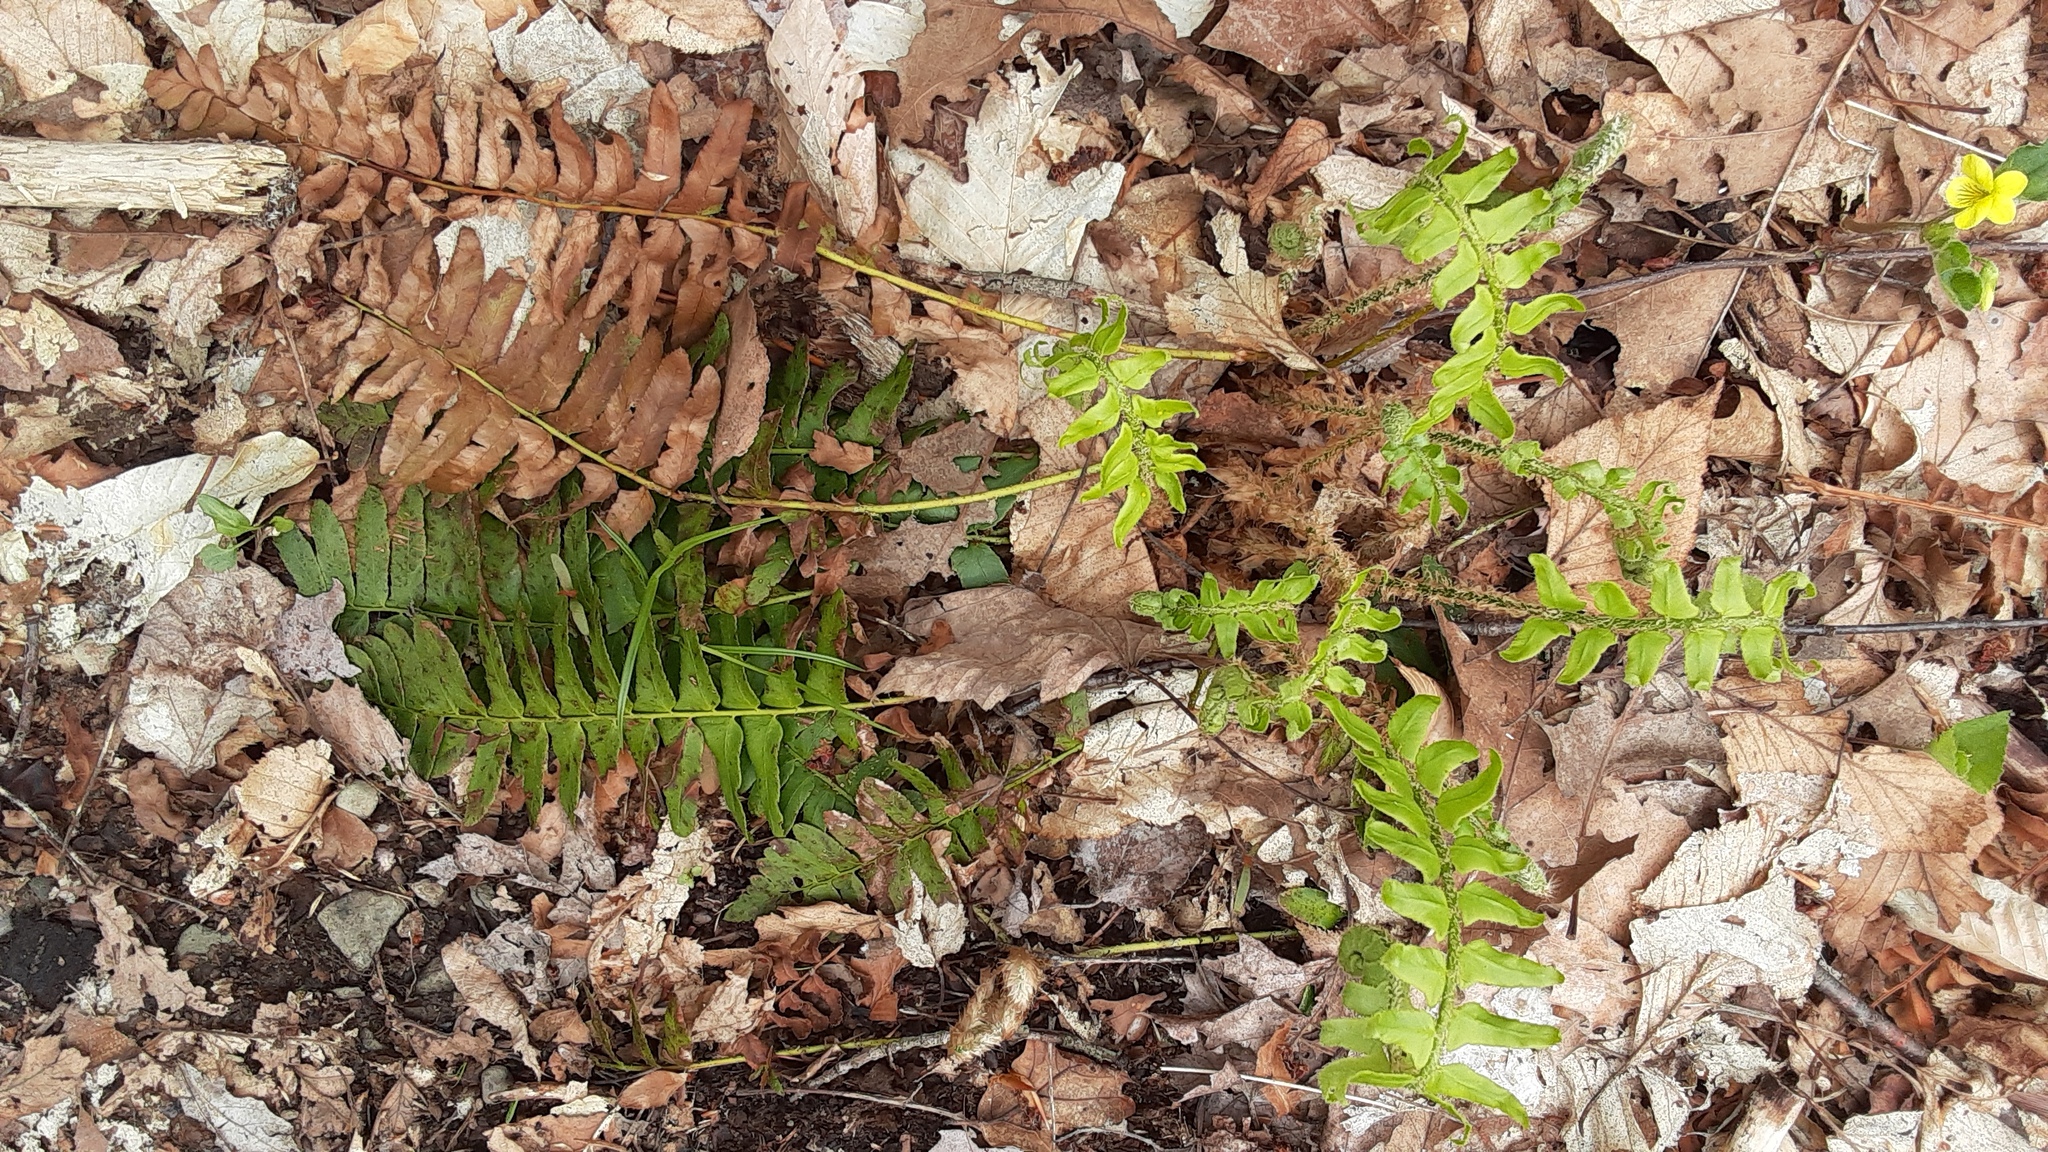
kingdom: Plantae
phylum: Tracheophyta
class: Polypodiopsida
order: Polypodiales
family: Dryopteridaceae
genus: Polystichum
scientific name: Polystichum acrostichoides
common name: Christmas fern
